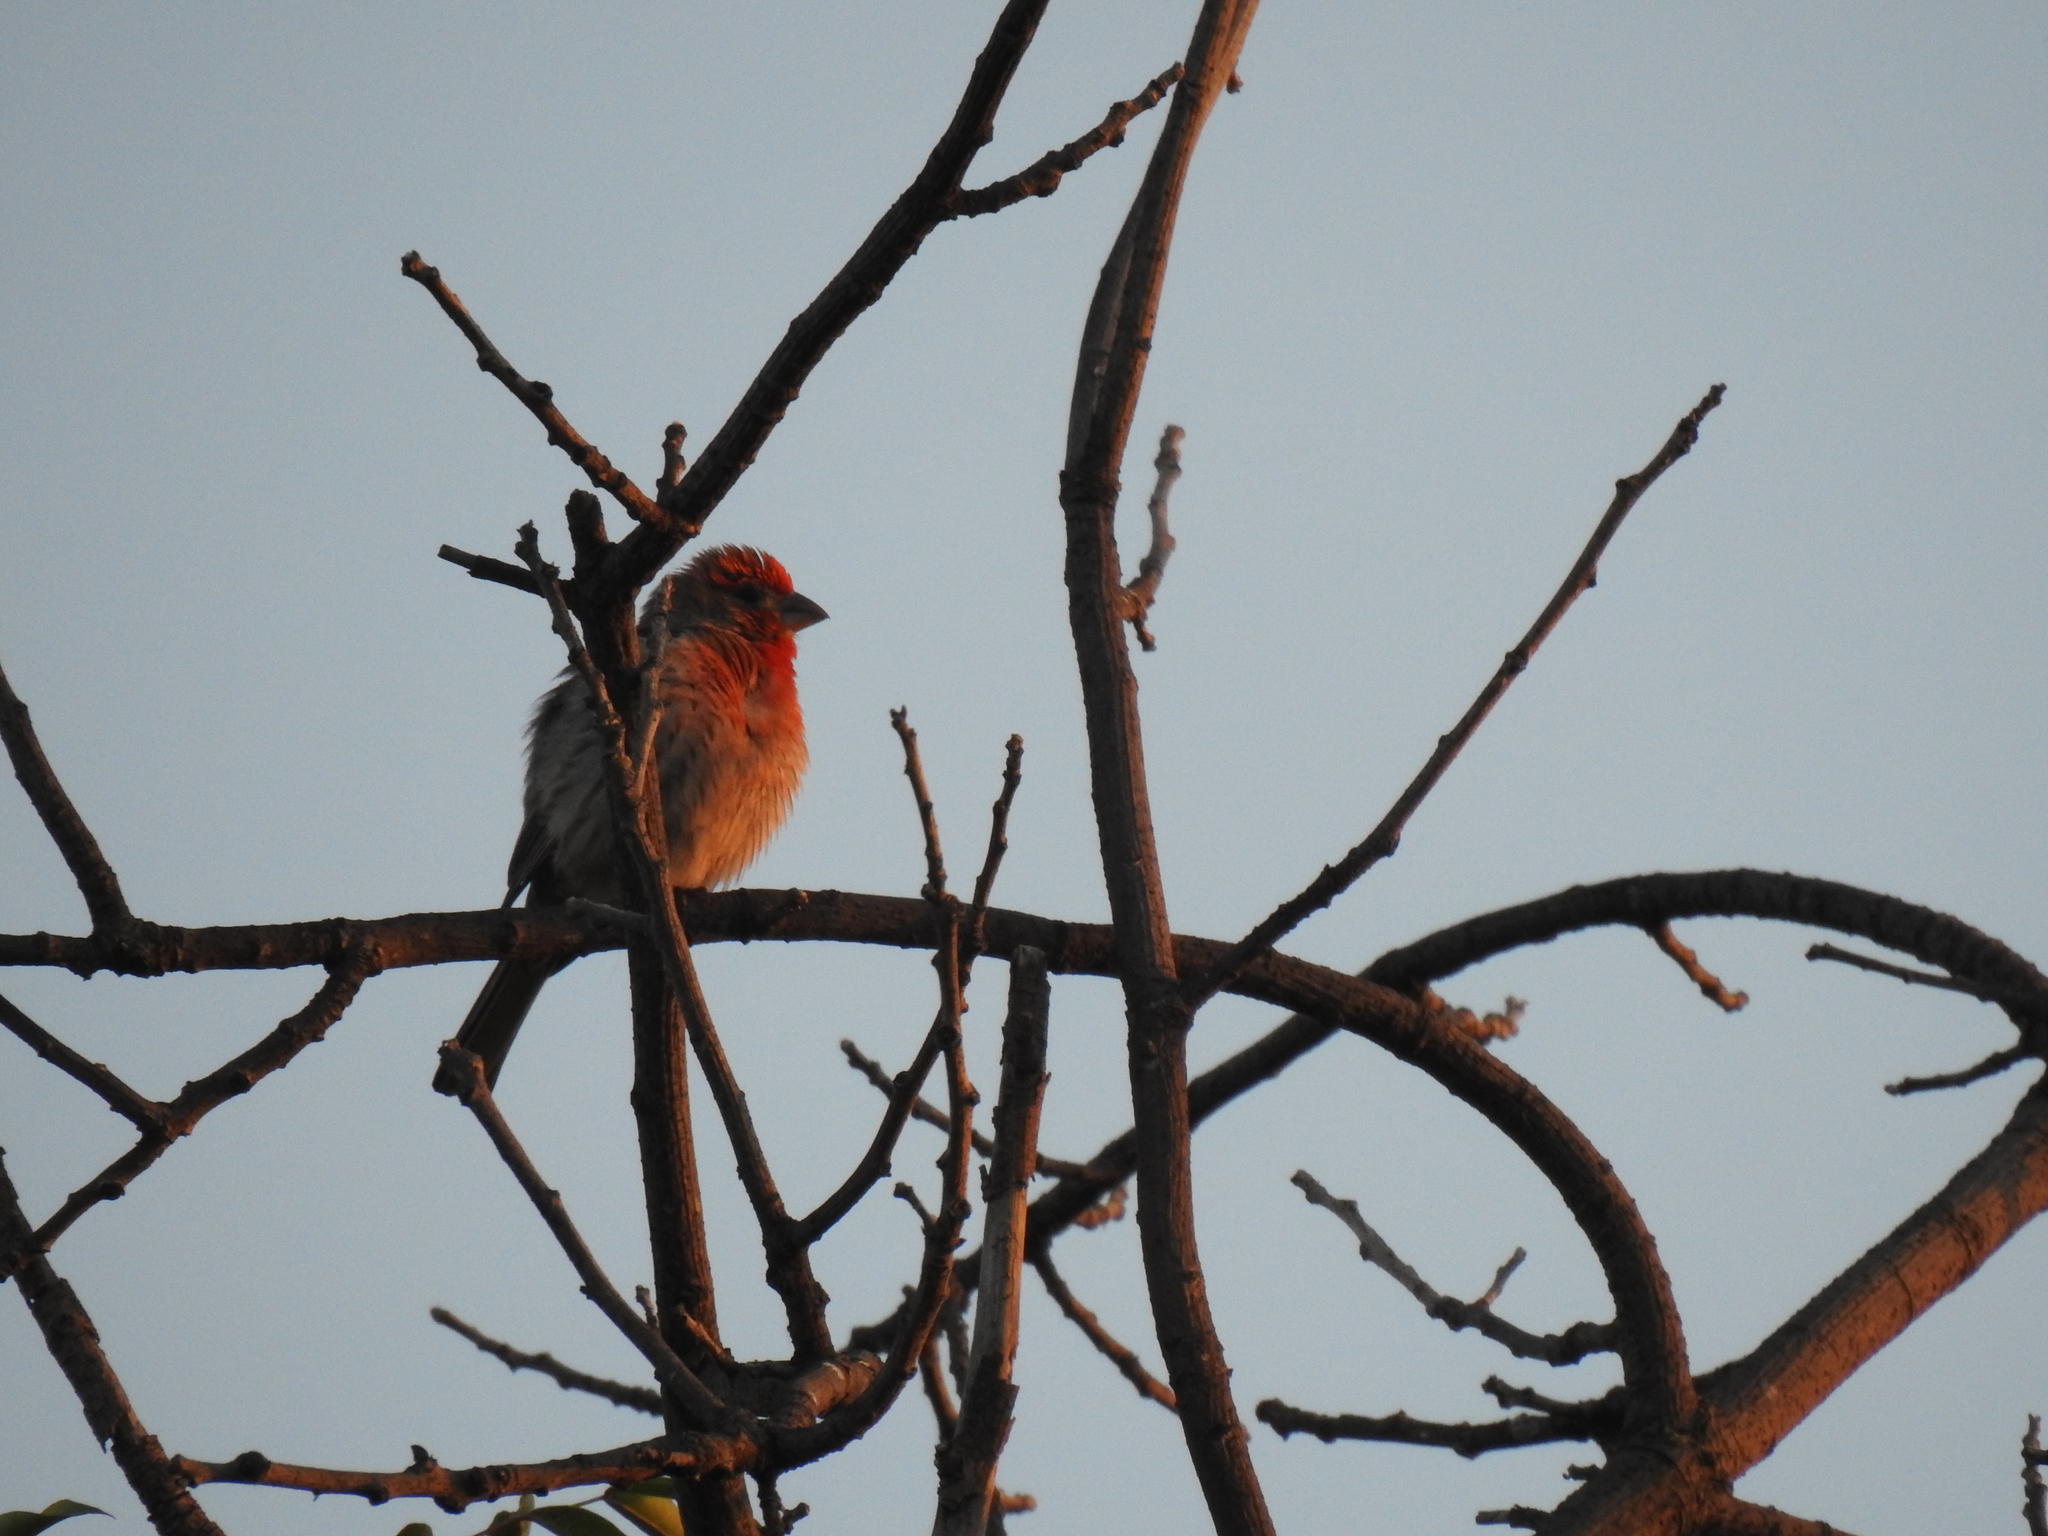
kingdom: Animalia
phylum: Chordata
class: Aves
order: Passeriformes
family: Fringillidae
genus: Haemorhous
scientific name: Haemorhous mexicanus
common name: House finch
